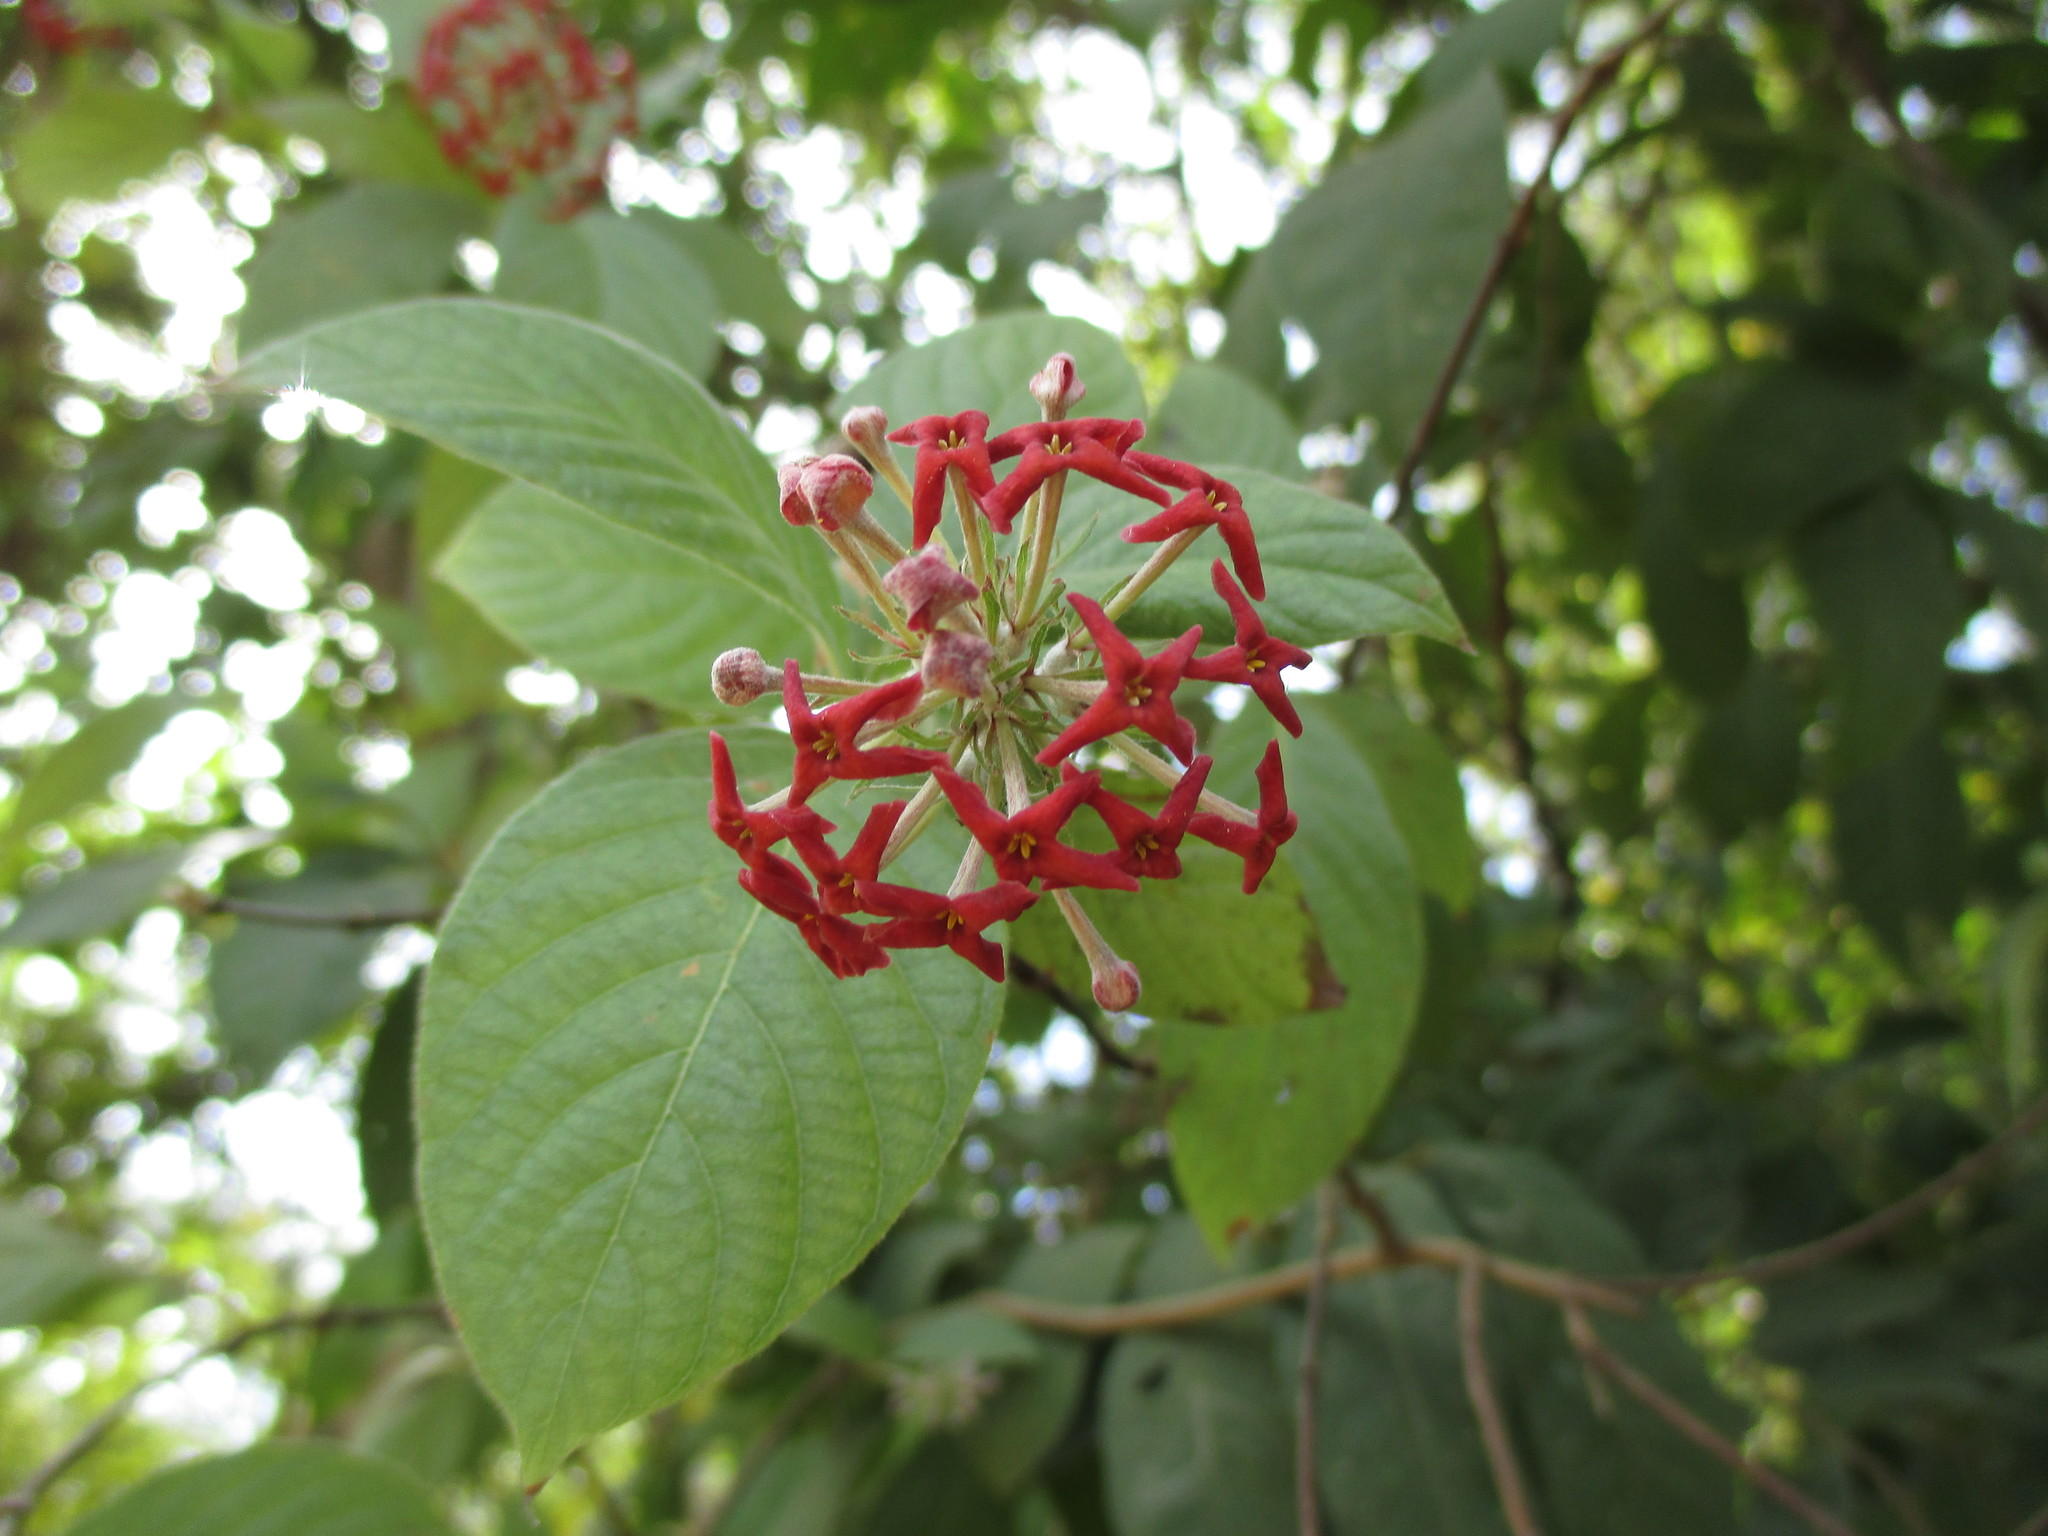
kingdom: Plantae
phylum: Tracheophyta
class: Magnoliopsida
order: Gentianales
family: Rubiaceae
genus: Arachnothryx
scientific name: Arachnothryx leucophylla
